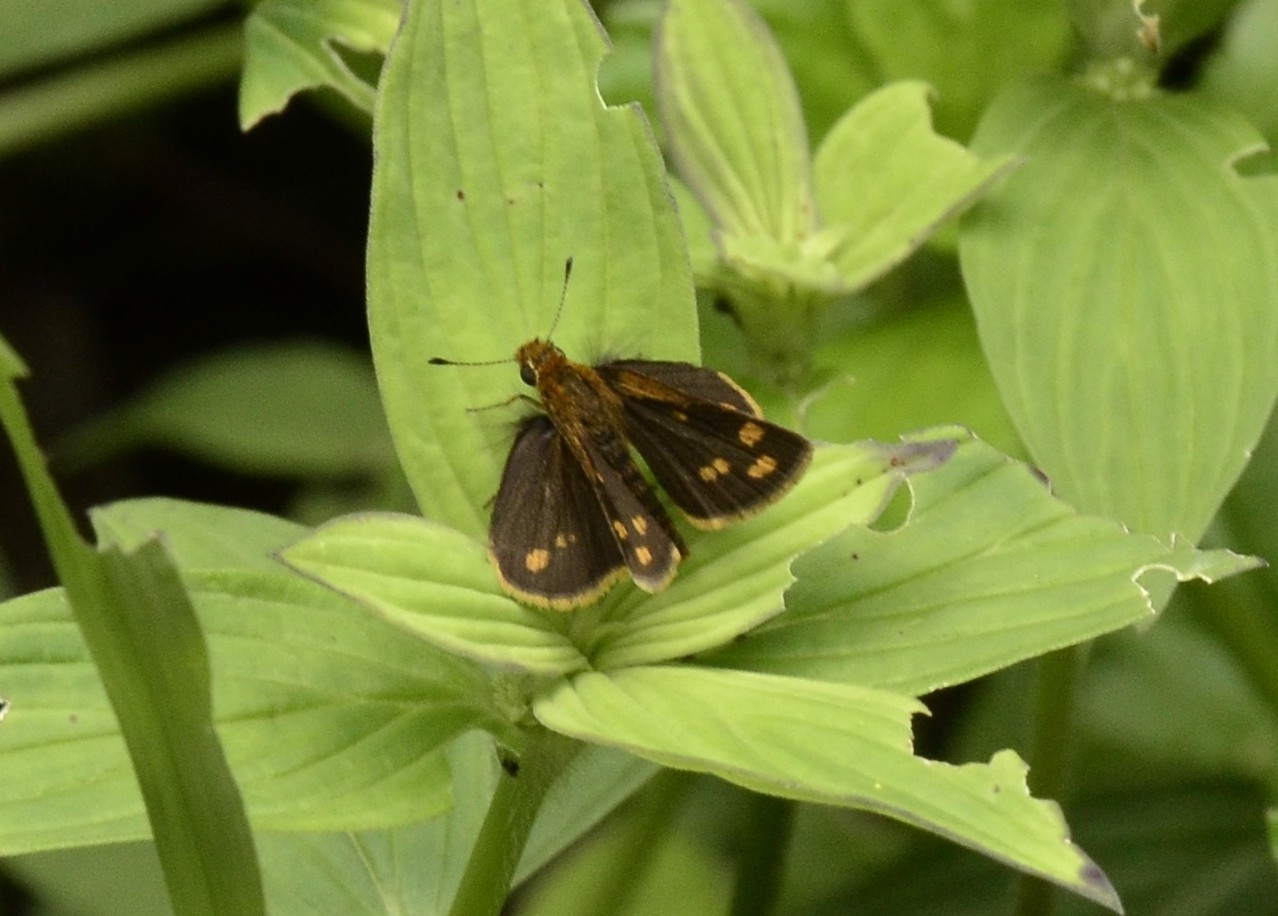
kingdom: Animalia
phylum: Arthropoda
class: Insecta
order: Lepidoptera
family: Hesperiidae
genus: Taractrocera
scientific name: Taractrocera ceramas
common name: Tamil grass dart
